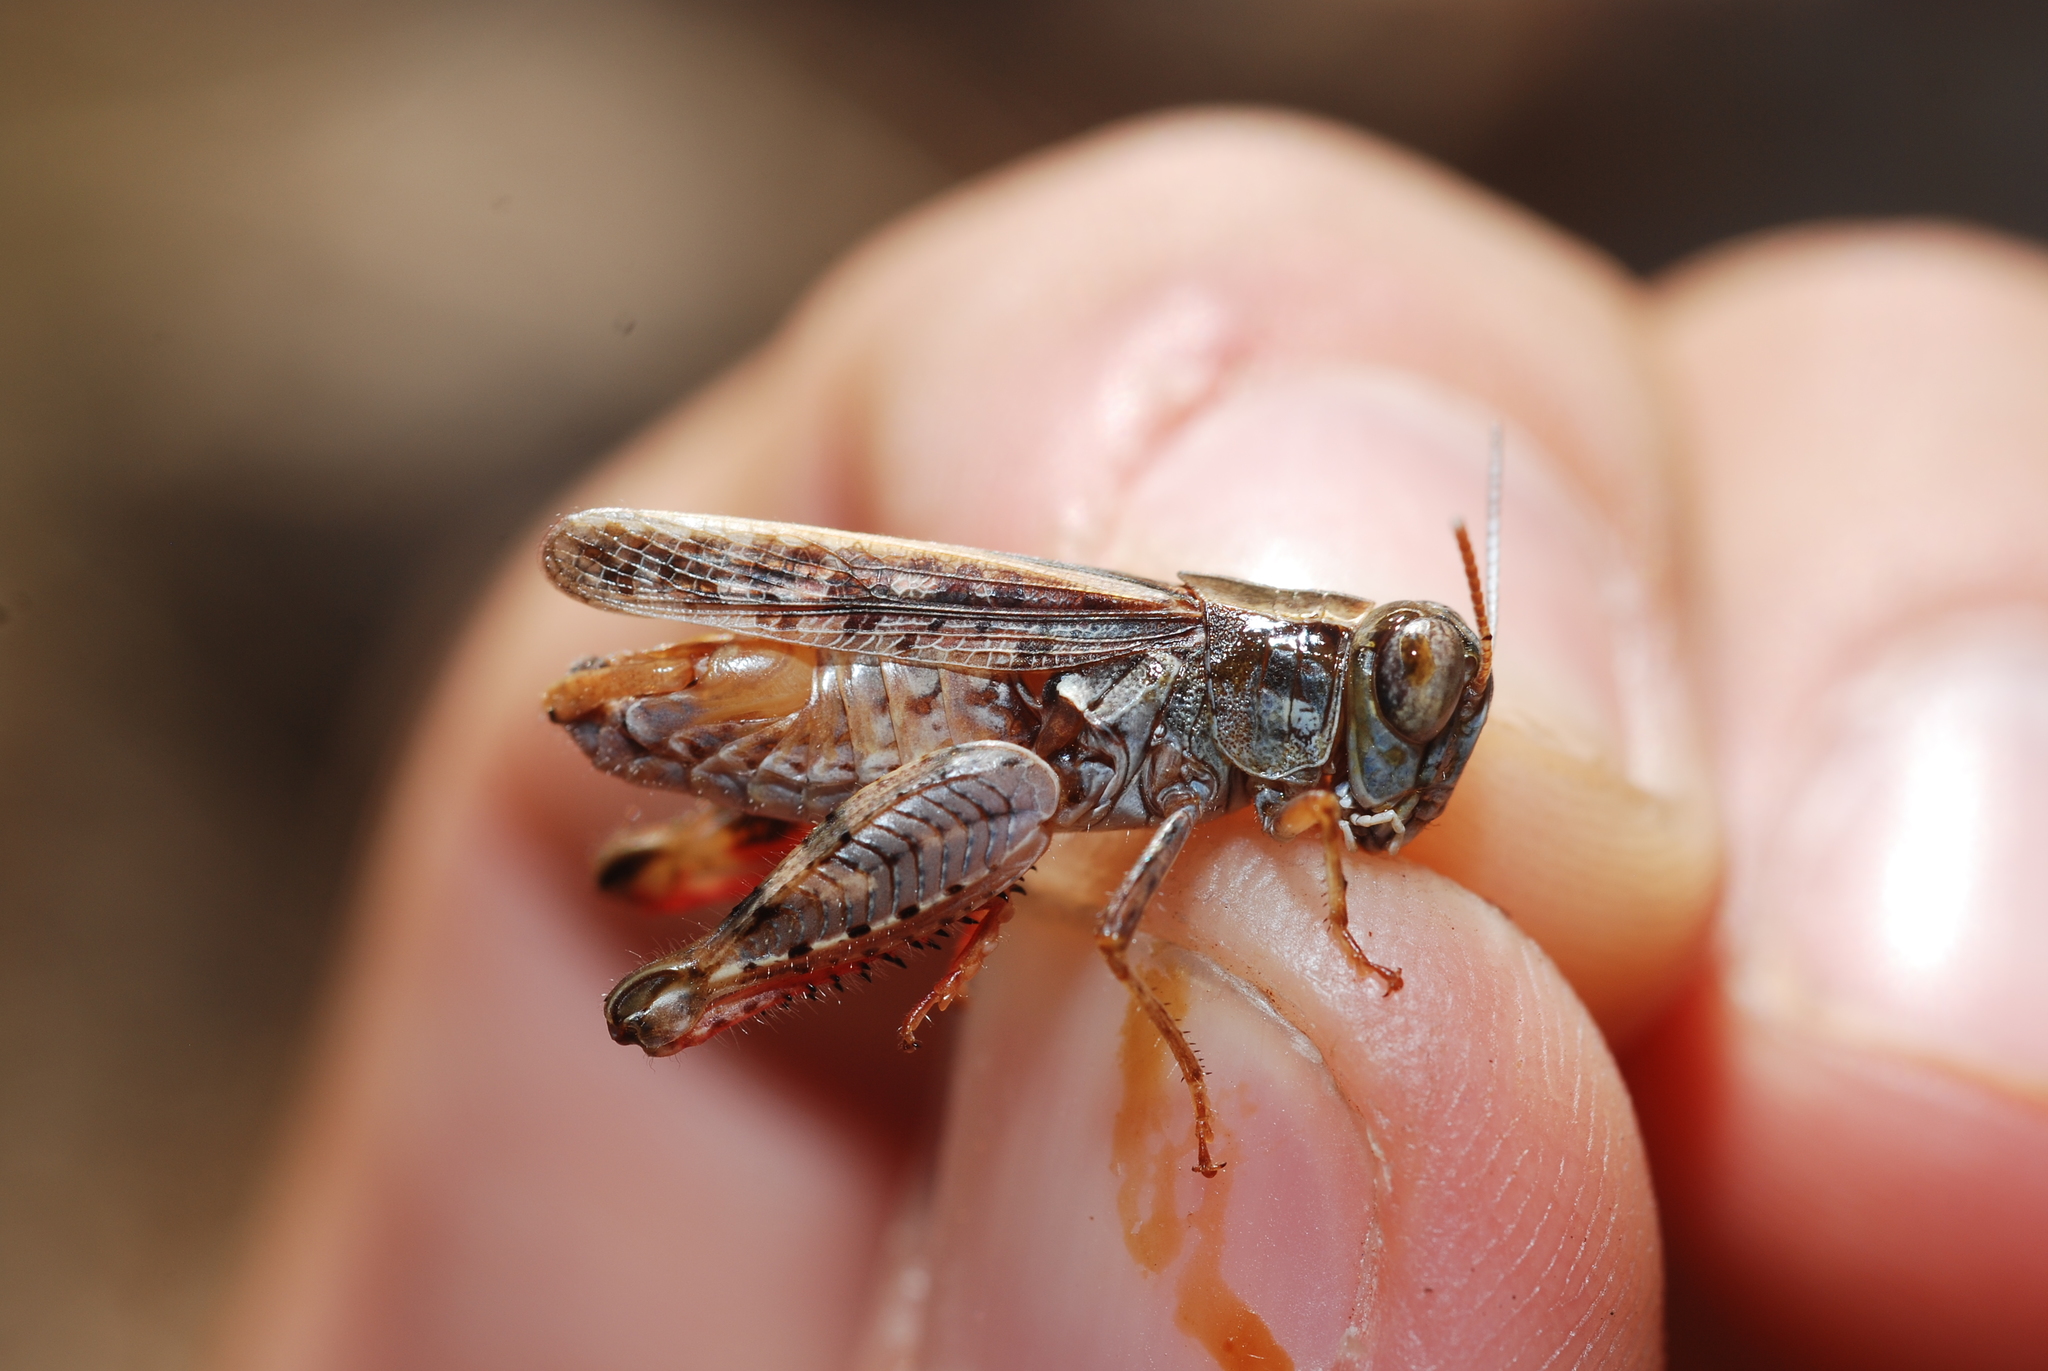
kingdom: Animalia
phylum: Arthropoda
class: Insecta
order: Orthoptera
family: Acrididae
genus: Calliptamus
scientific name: Calliptamus barbarus
